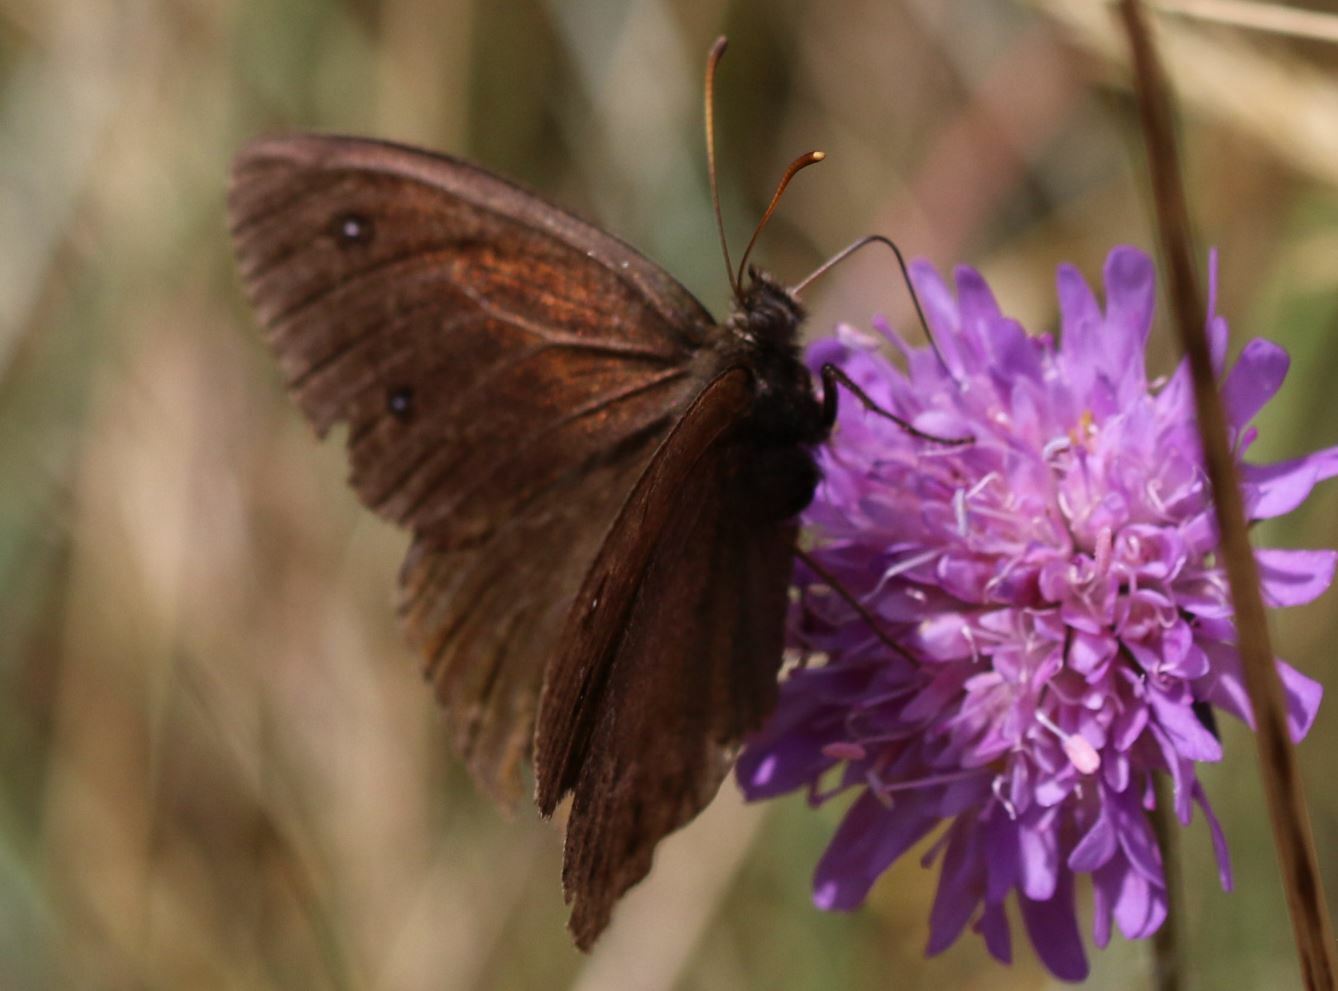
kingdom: Animalia
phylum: Arthropoda
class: Insecta
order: Lepidoptera
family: Nymphalidae
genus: Satyrus
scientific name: Satyrus ferula
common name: Great sooty satyr
